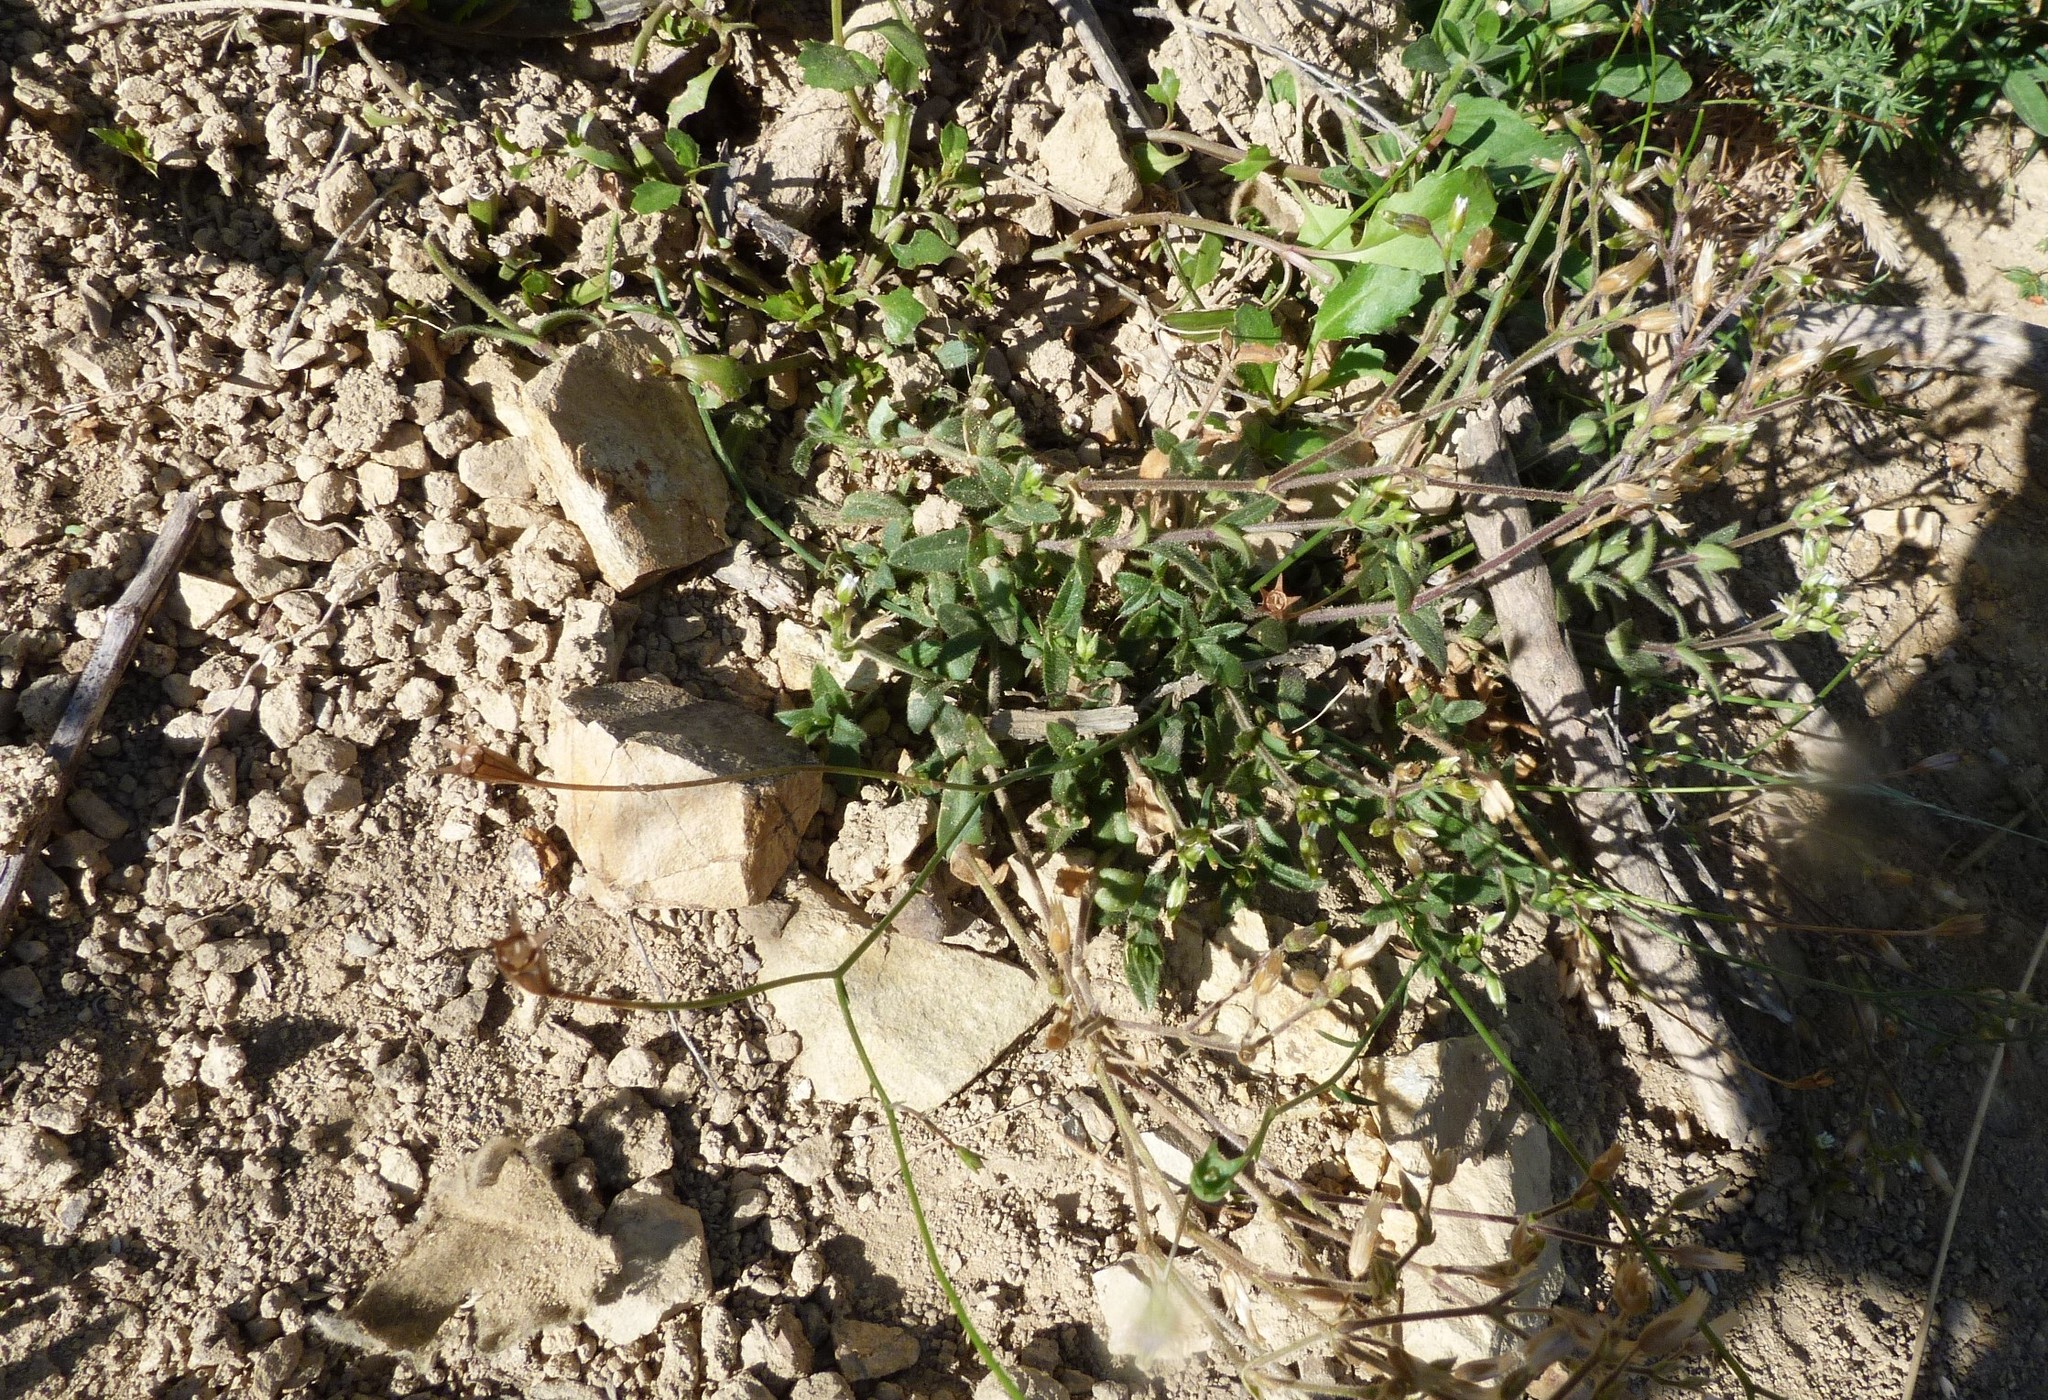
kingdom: Plantae
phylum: Tracheophyta
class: Magnoliopsida
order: Caryophyllales
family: Caryophyllaceae
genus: Cerastium
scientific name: Cerastium fontanum
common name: Common mouse-ear
